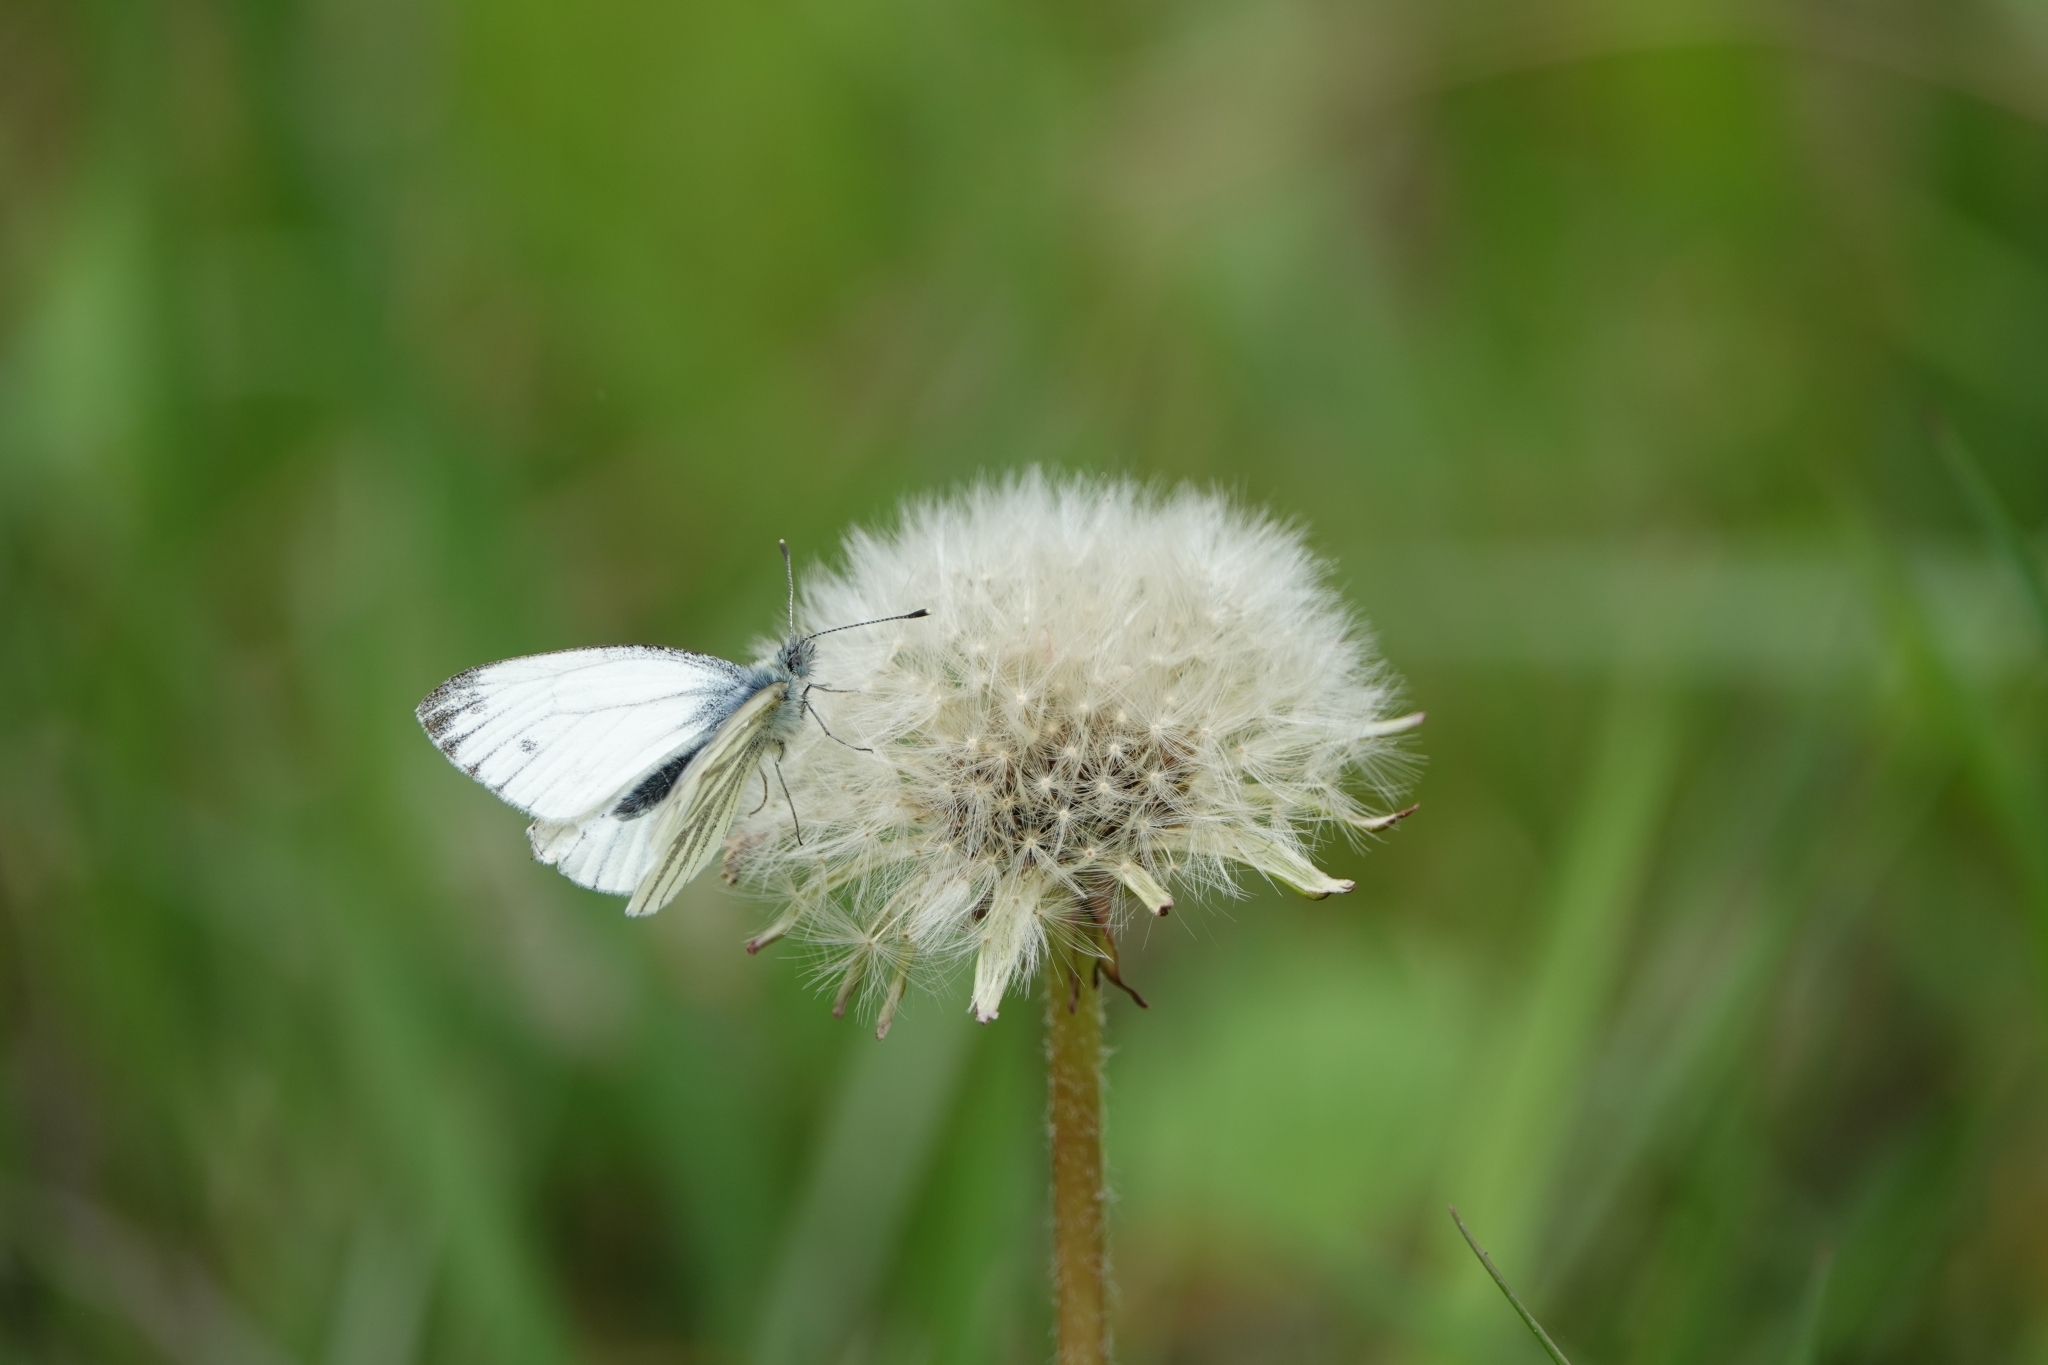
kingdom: Animalia
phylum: Arthropoda
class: Insecta
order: Lepidoptera
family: Pieridae
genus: Pieris
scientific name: Pieris napi
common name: Green-veined white
